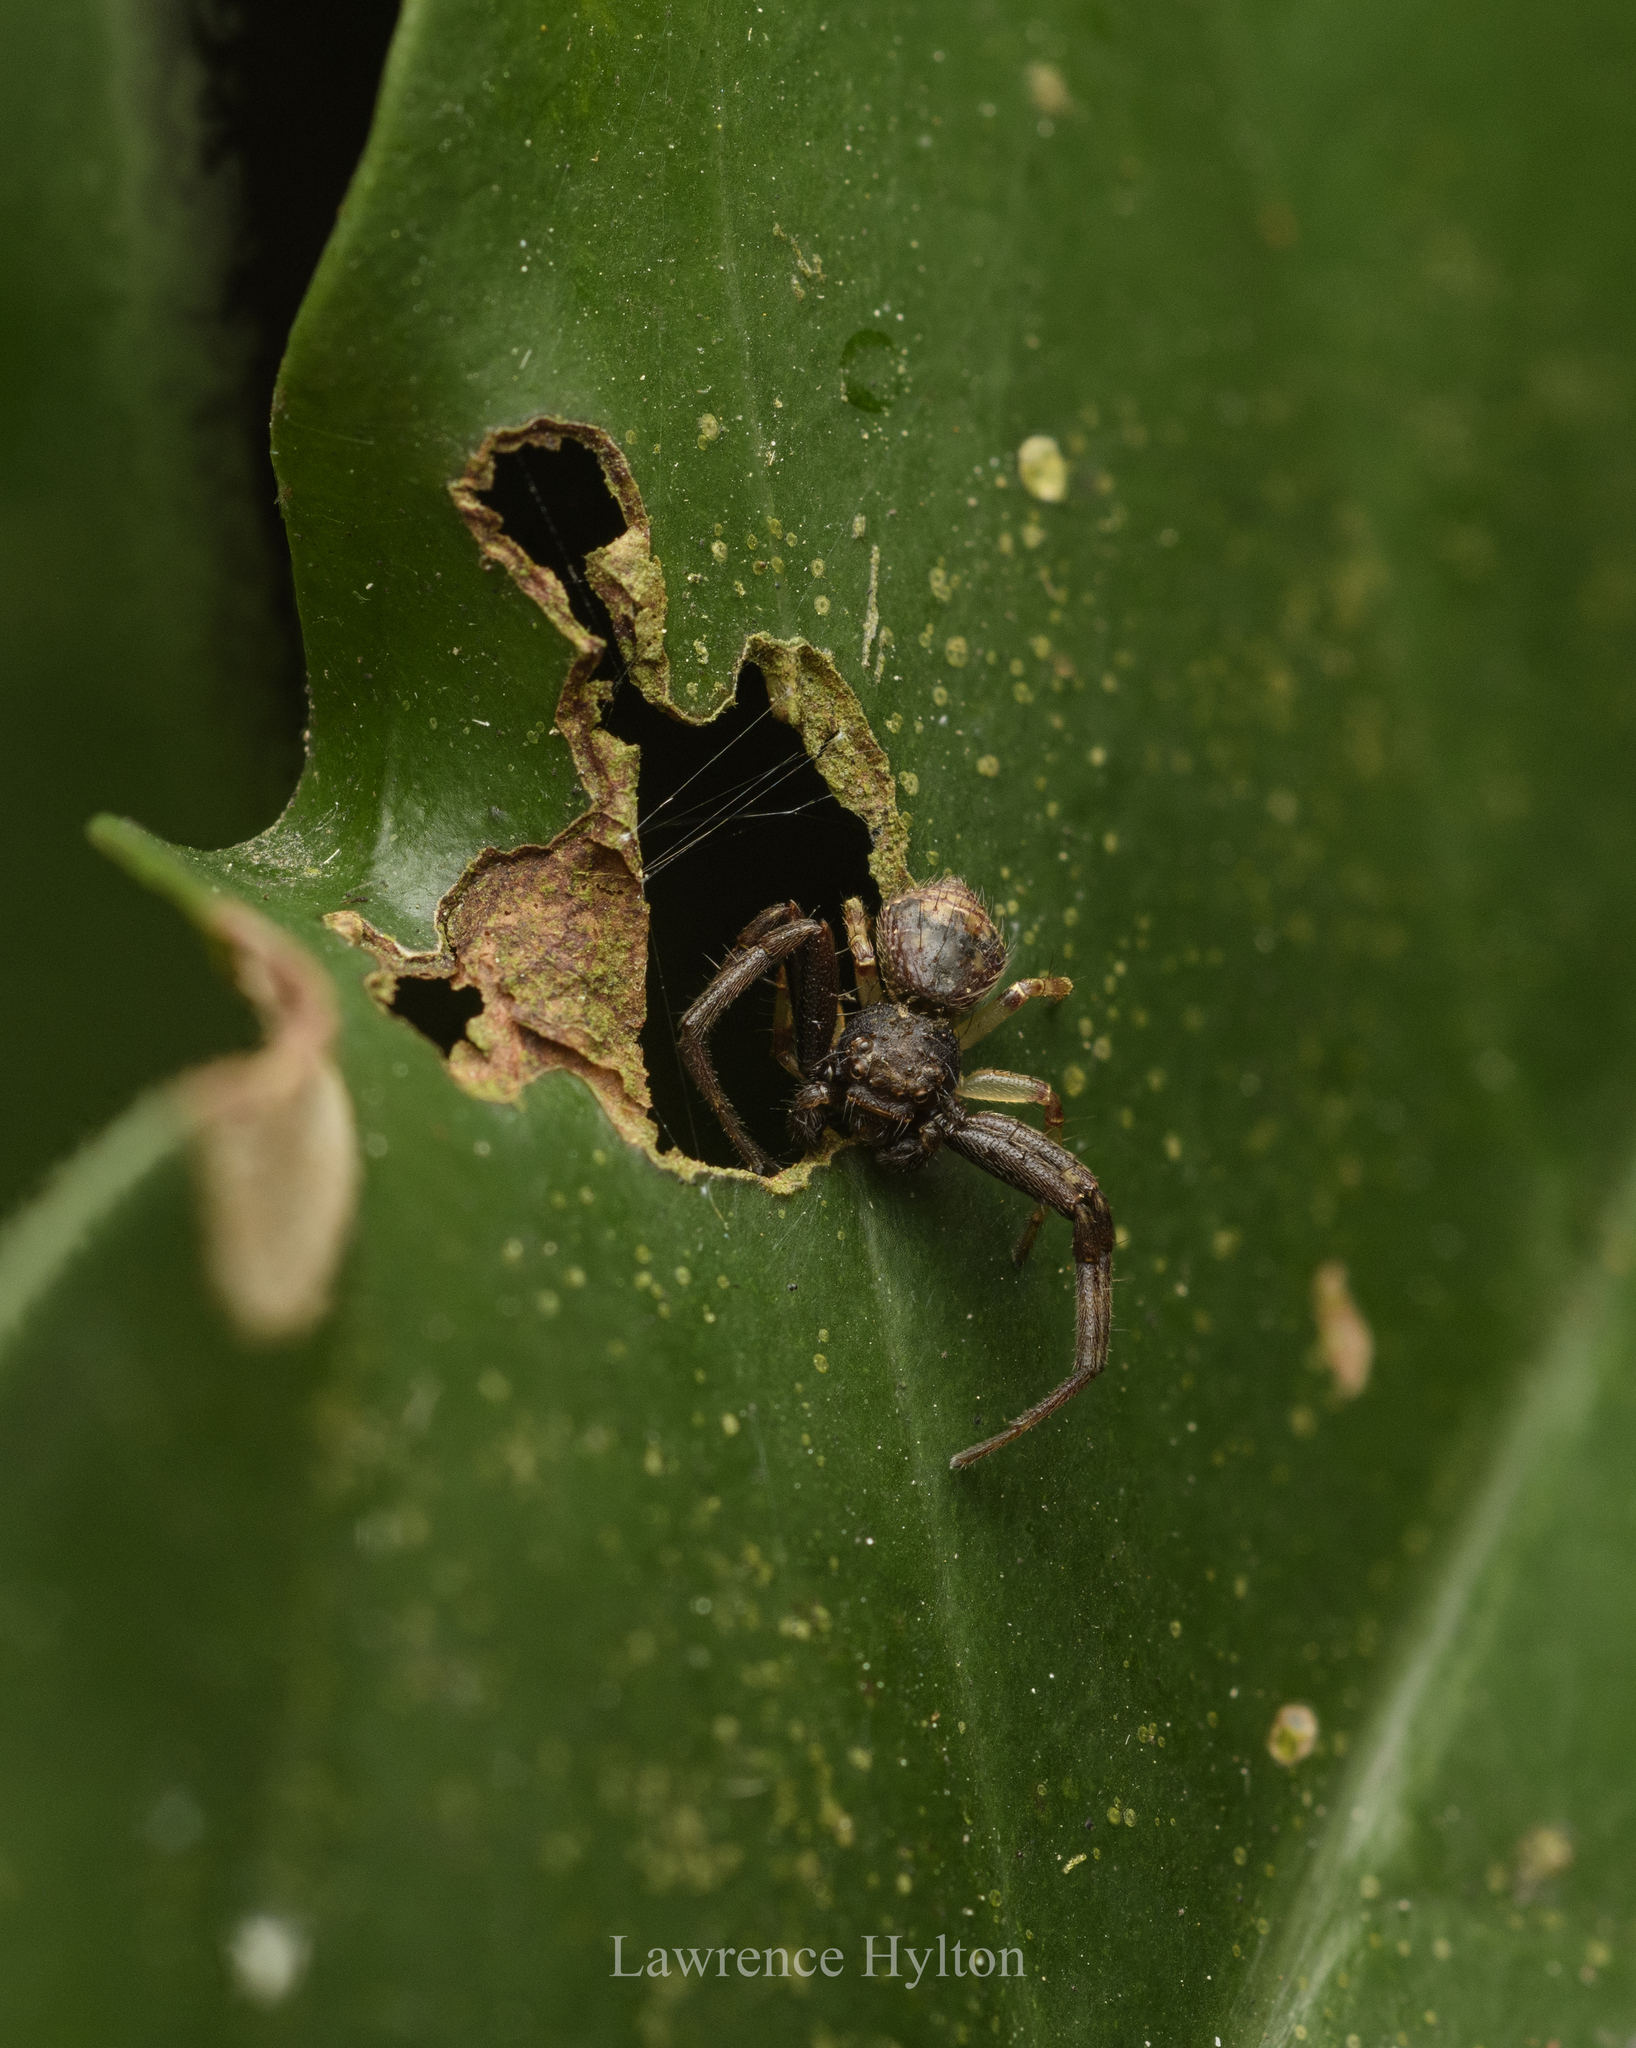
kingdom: Animalia
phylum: Arthropoda
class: Arachnida
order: Araneae
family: Thomisidae
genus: Strigoplus
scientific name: Strigoplus guizhouensis
